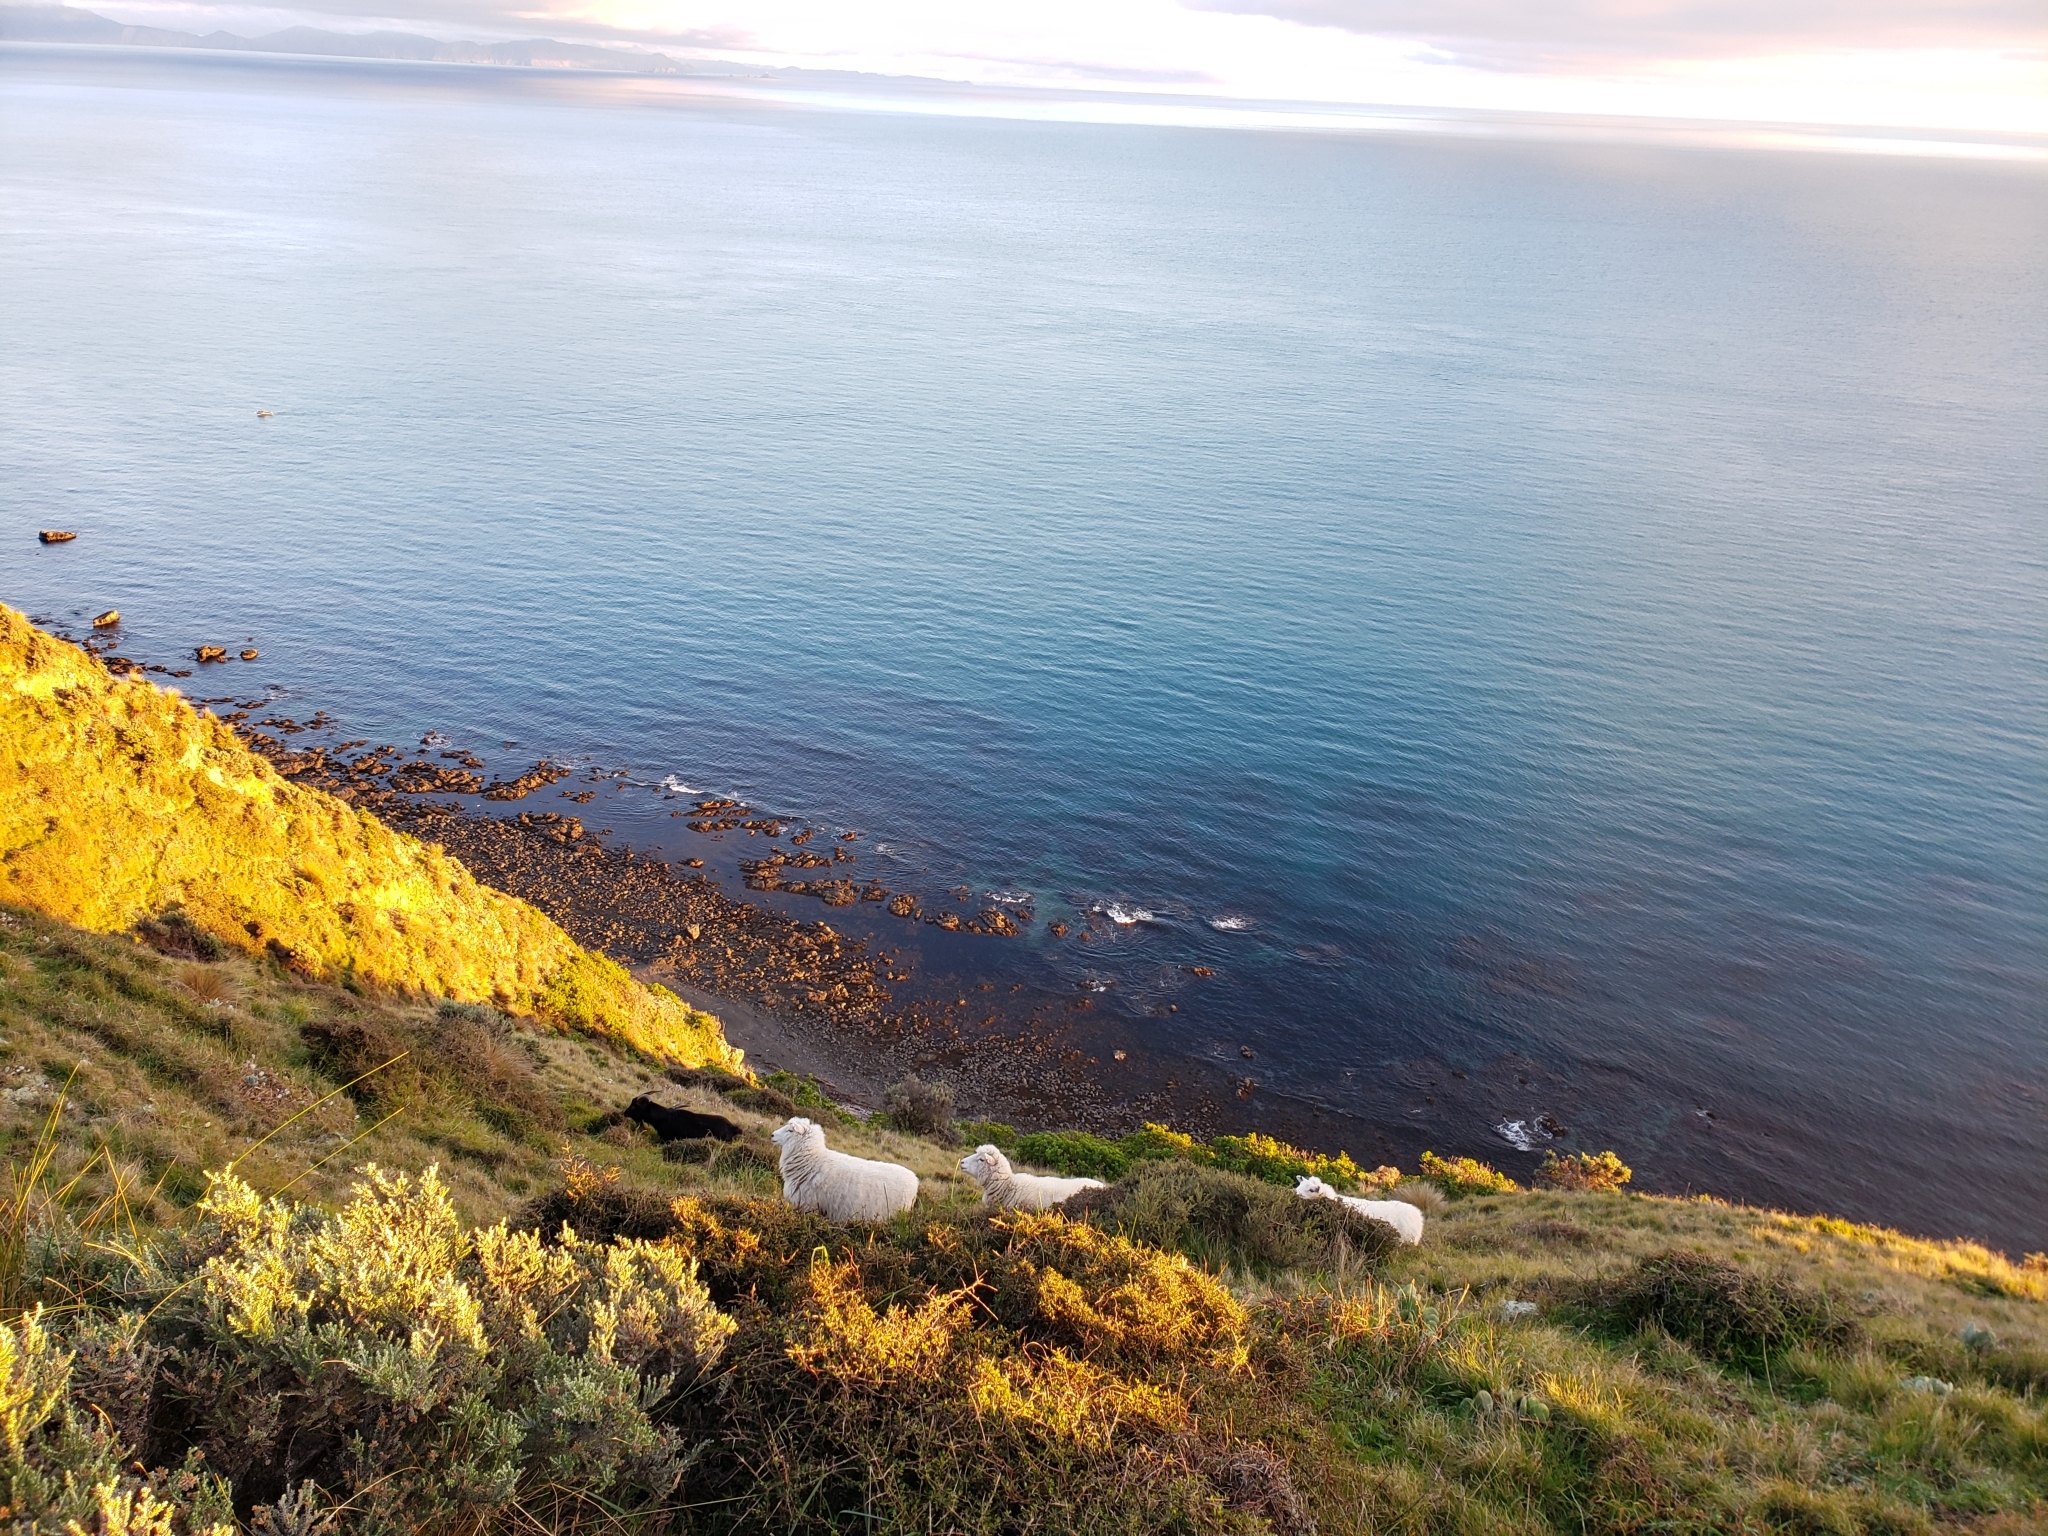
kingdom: Animalia
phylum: Chordata
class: Mammalia
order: Artiodactyla
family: Bovidae
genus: Ovis
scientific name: Ovis aries
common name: Domestic sheep
